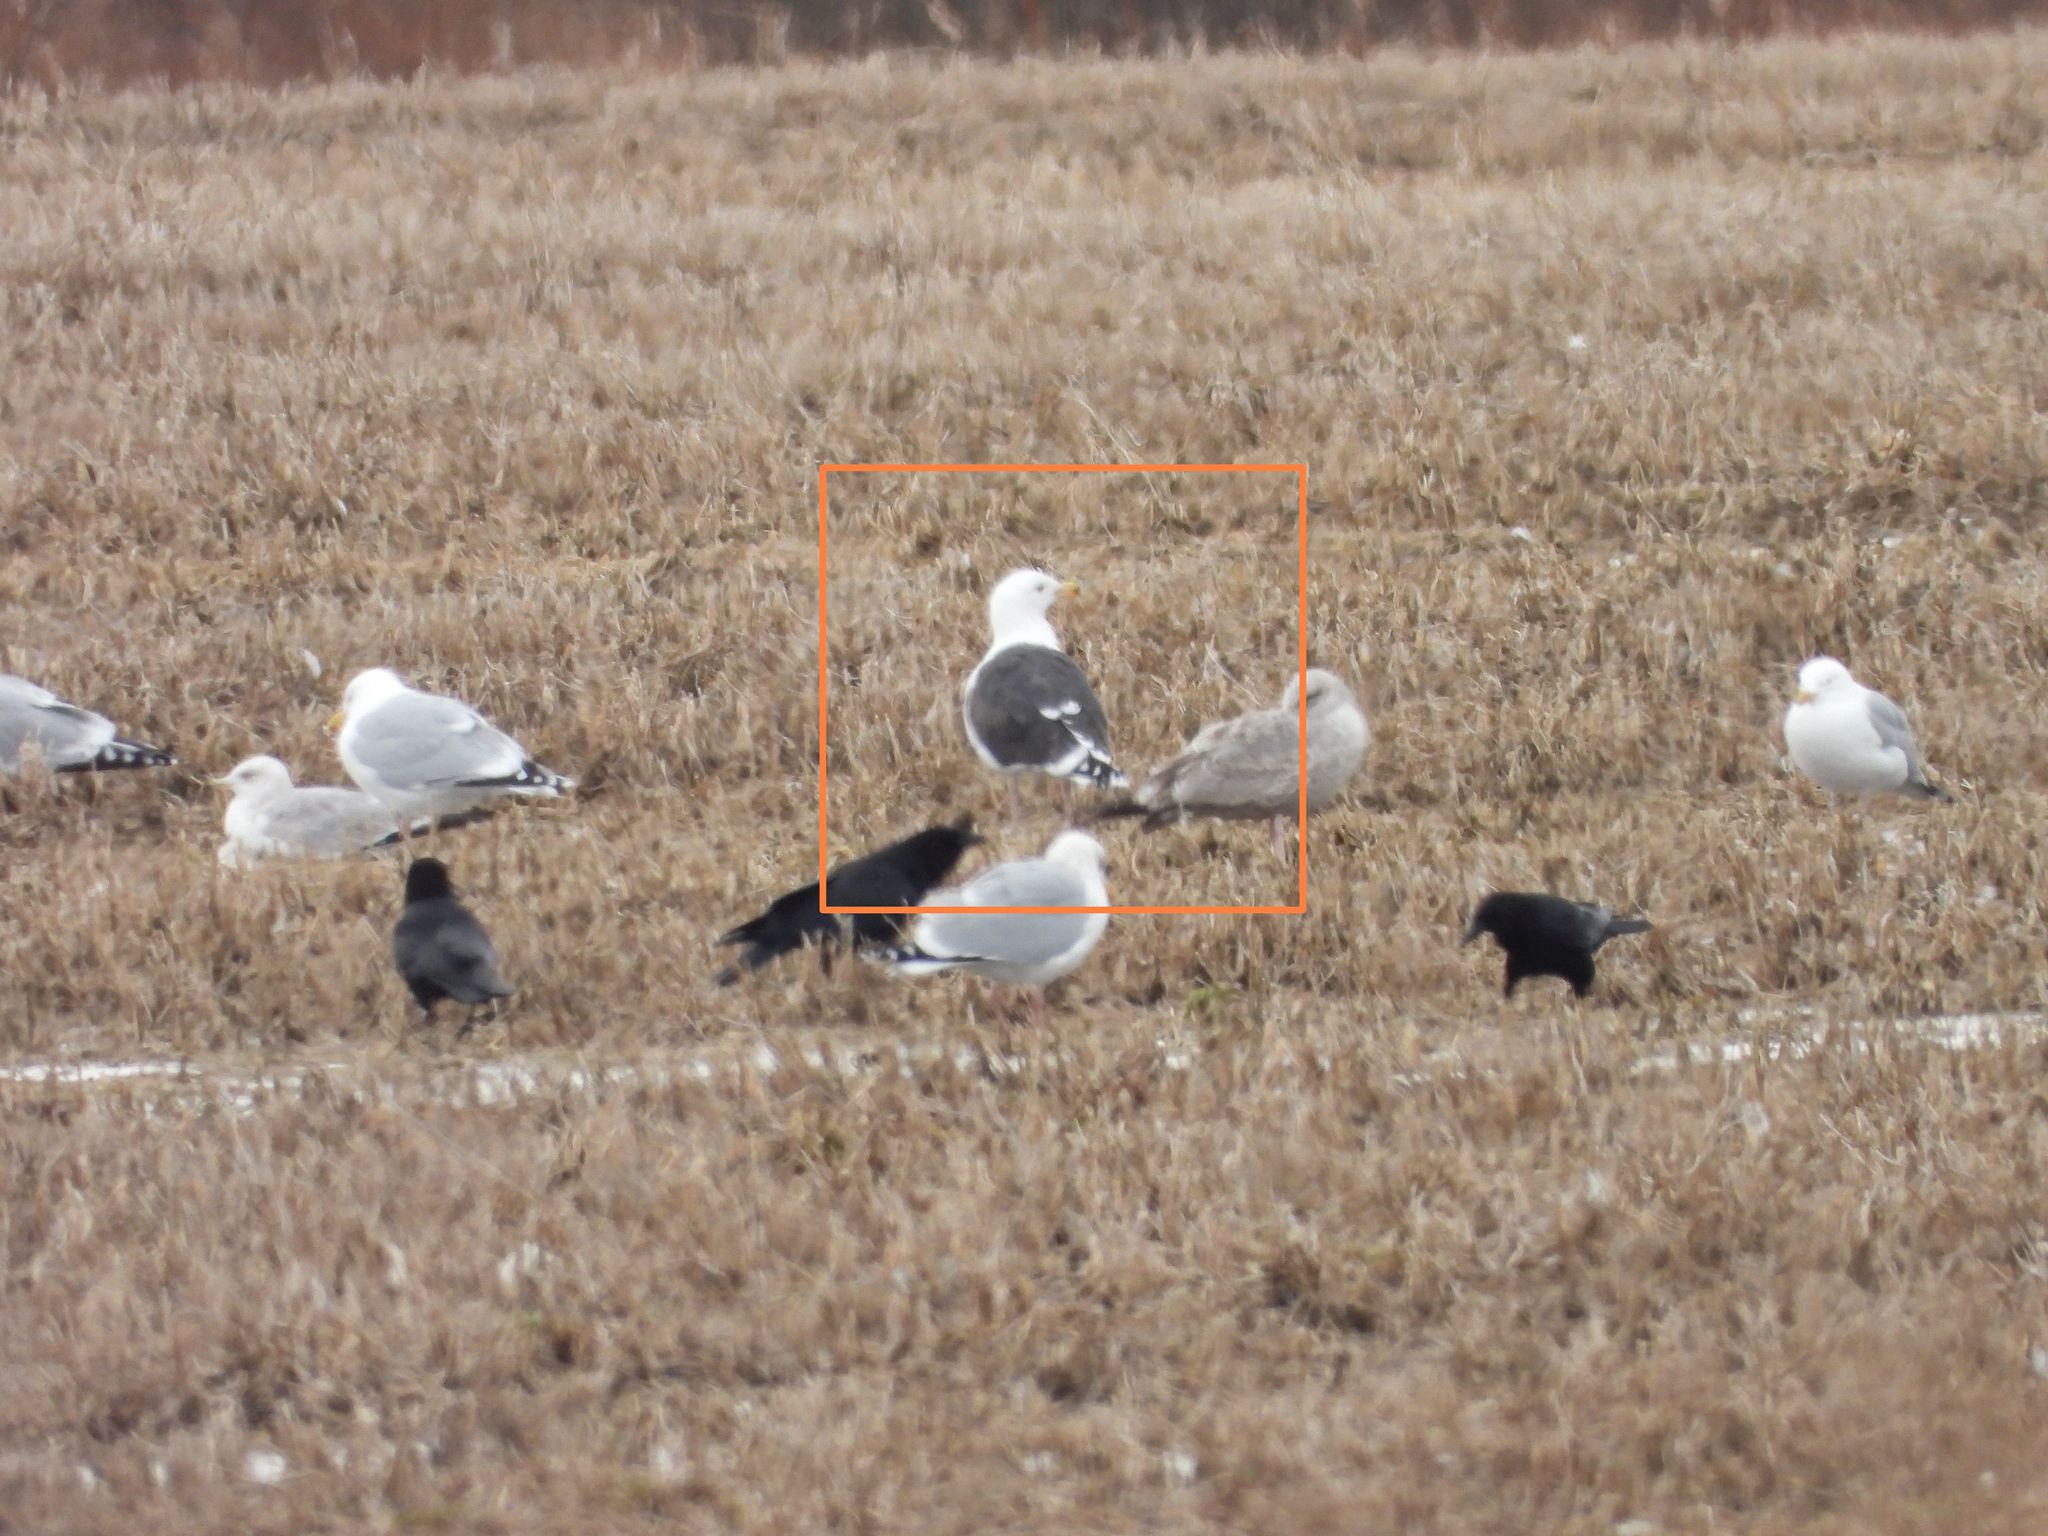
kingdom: Animalia
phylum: Chordata
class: Aves
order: Charadriiformes
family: Laridae
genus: Larus
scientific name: Larus marinus
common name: Great black-backed gull
